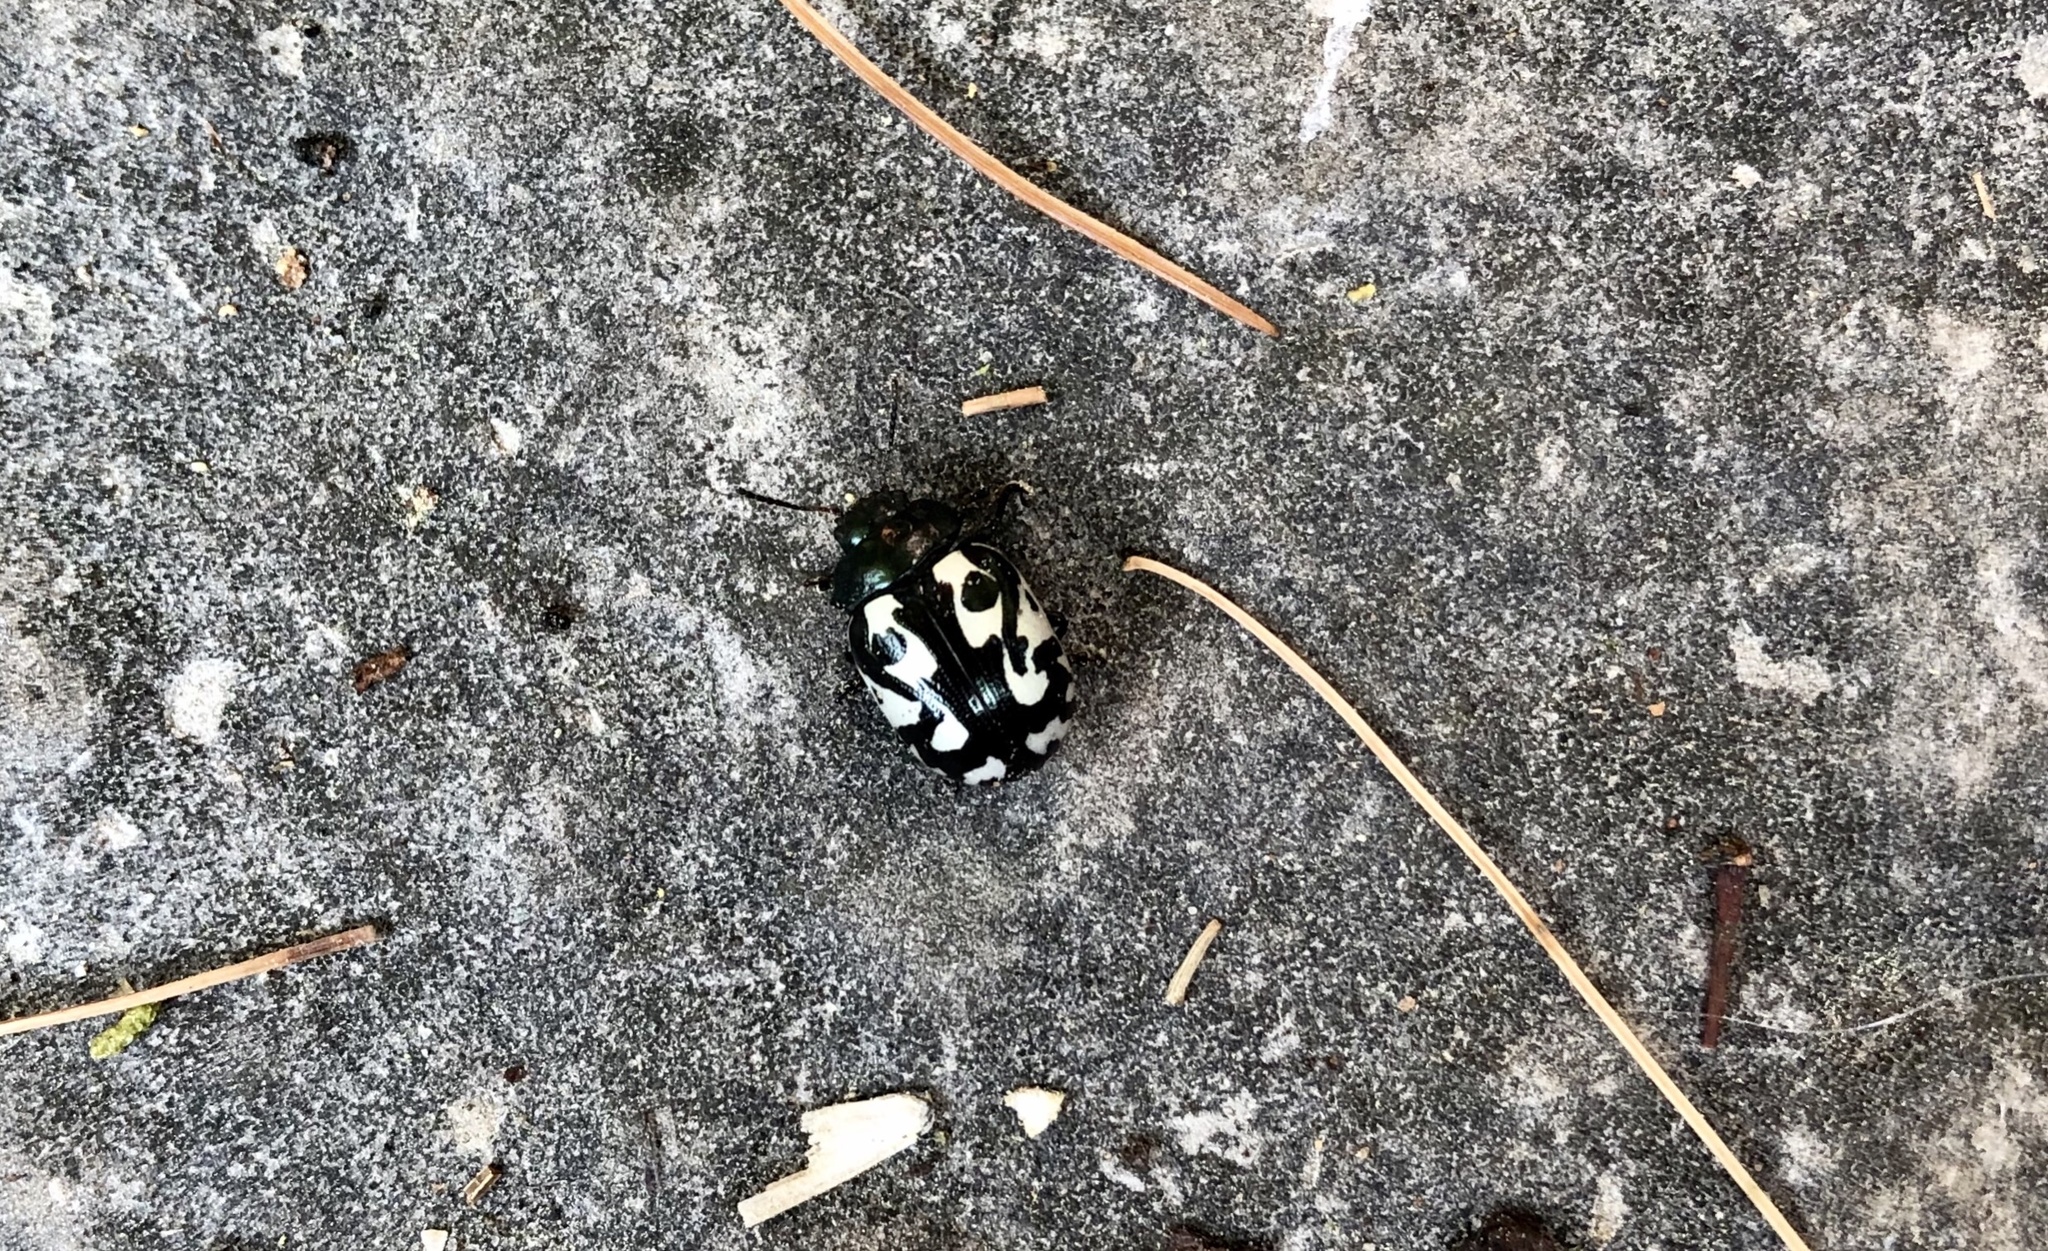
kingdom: Animalia
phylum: Arthropoda
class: Insecta
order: Coleoptera
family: Chrysomelidae
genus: Calligrapha
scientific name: Calligrapha pnirsa
